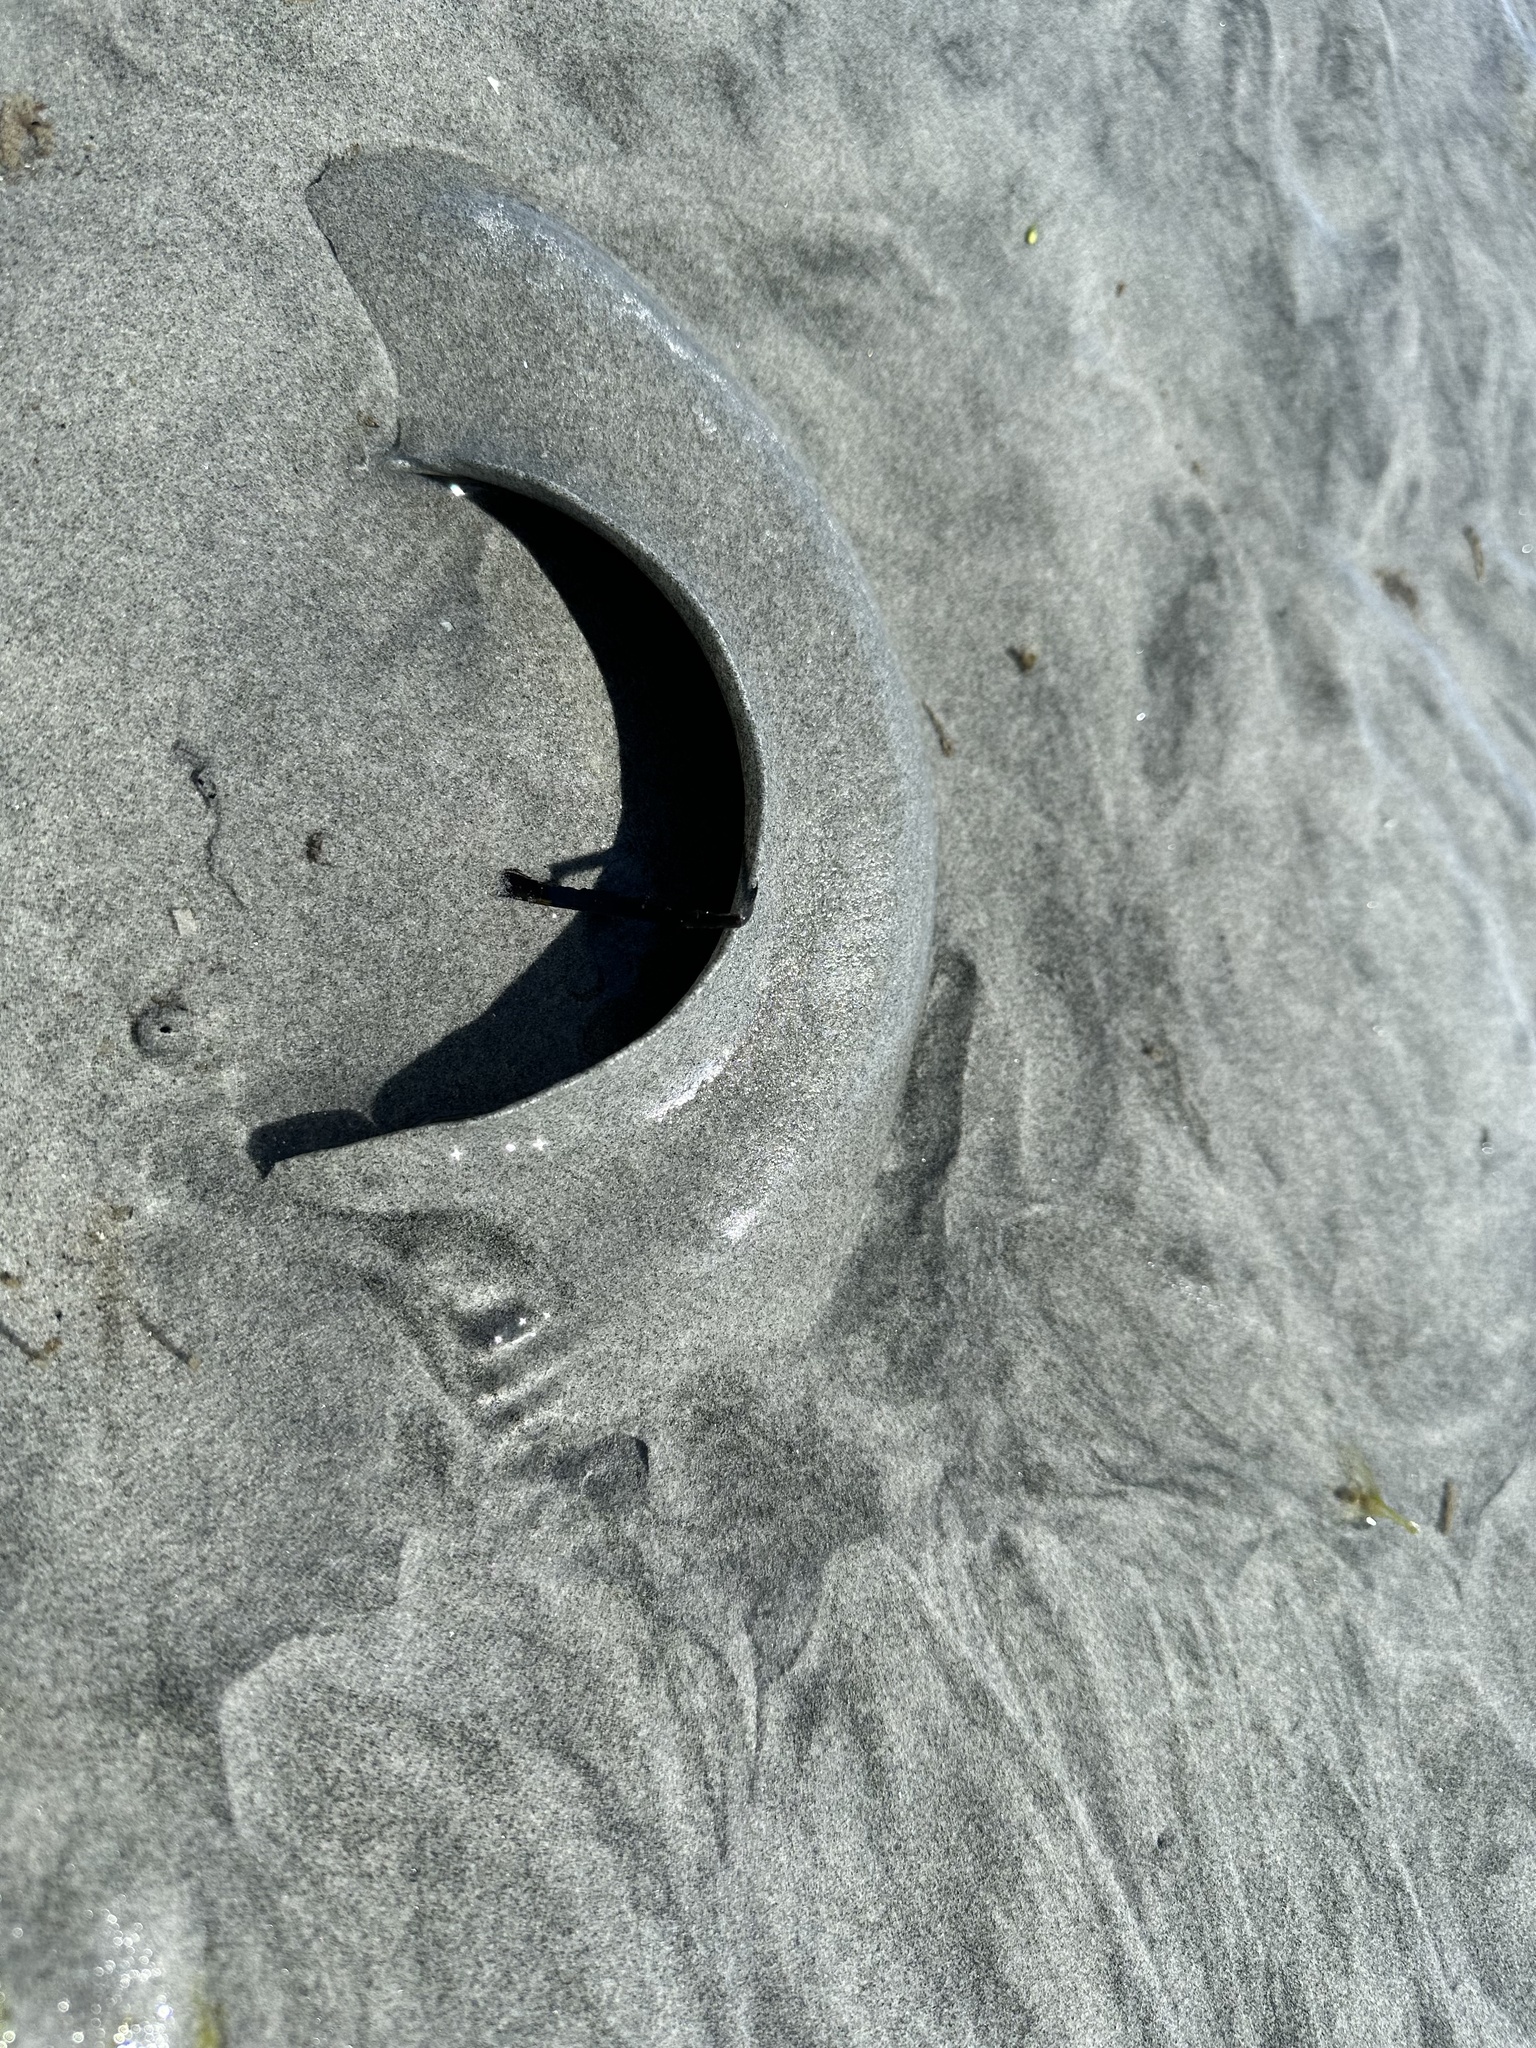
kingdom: Animalia
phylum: Mollusca
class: Gastropoda
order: Littorinimorpha
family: Naticidae
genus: Neverita
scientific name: Neverita lewisii
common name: Lewis' moonsnail
